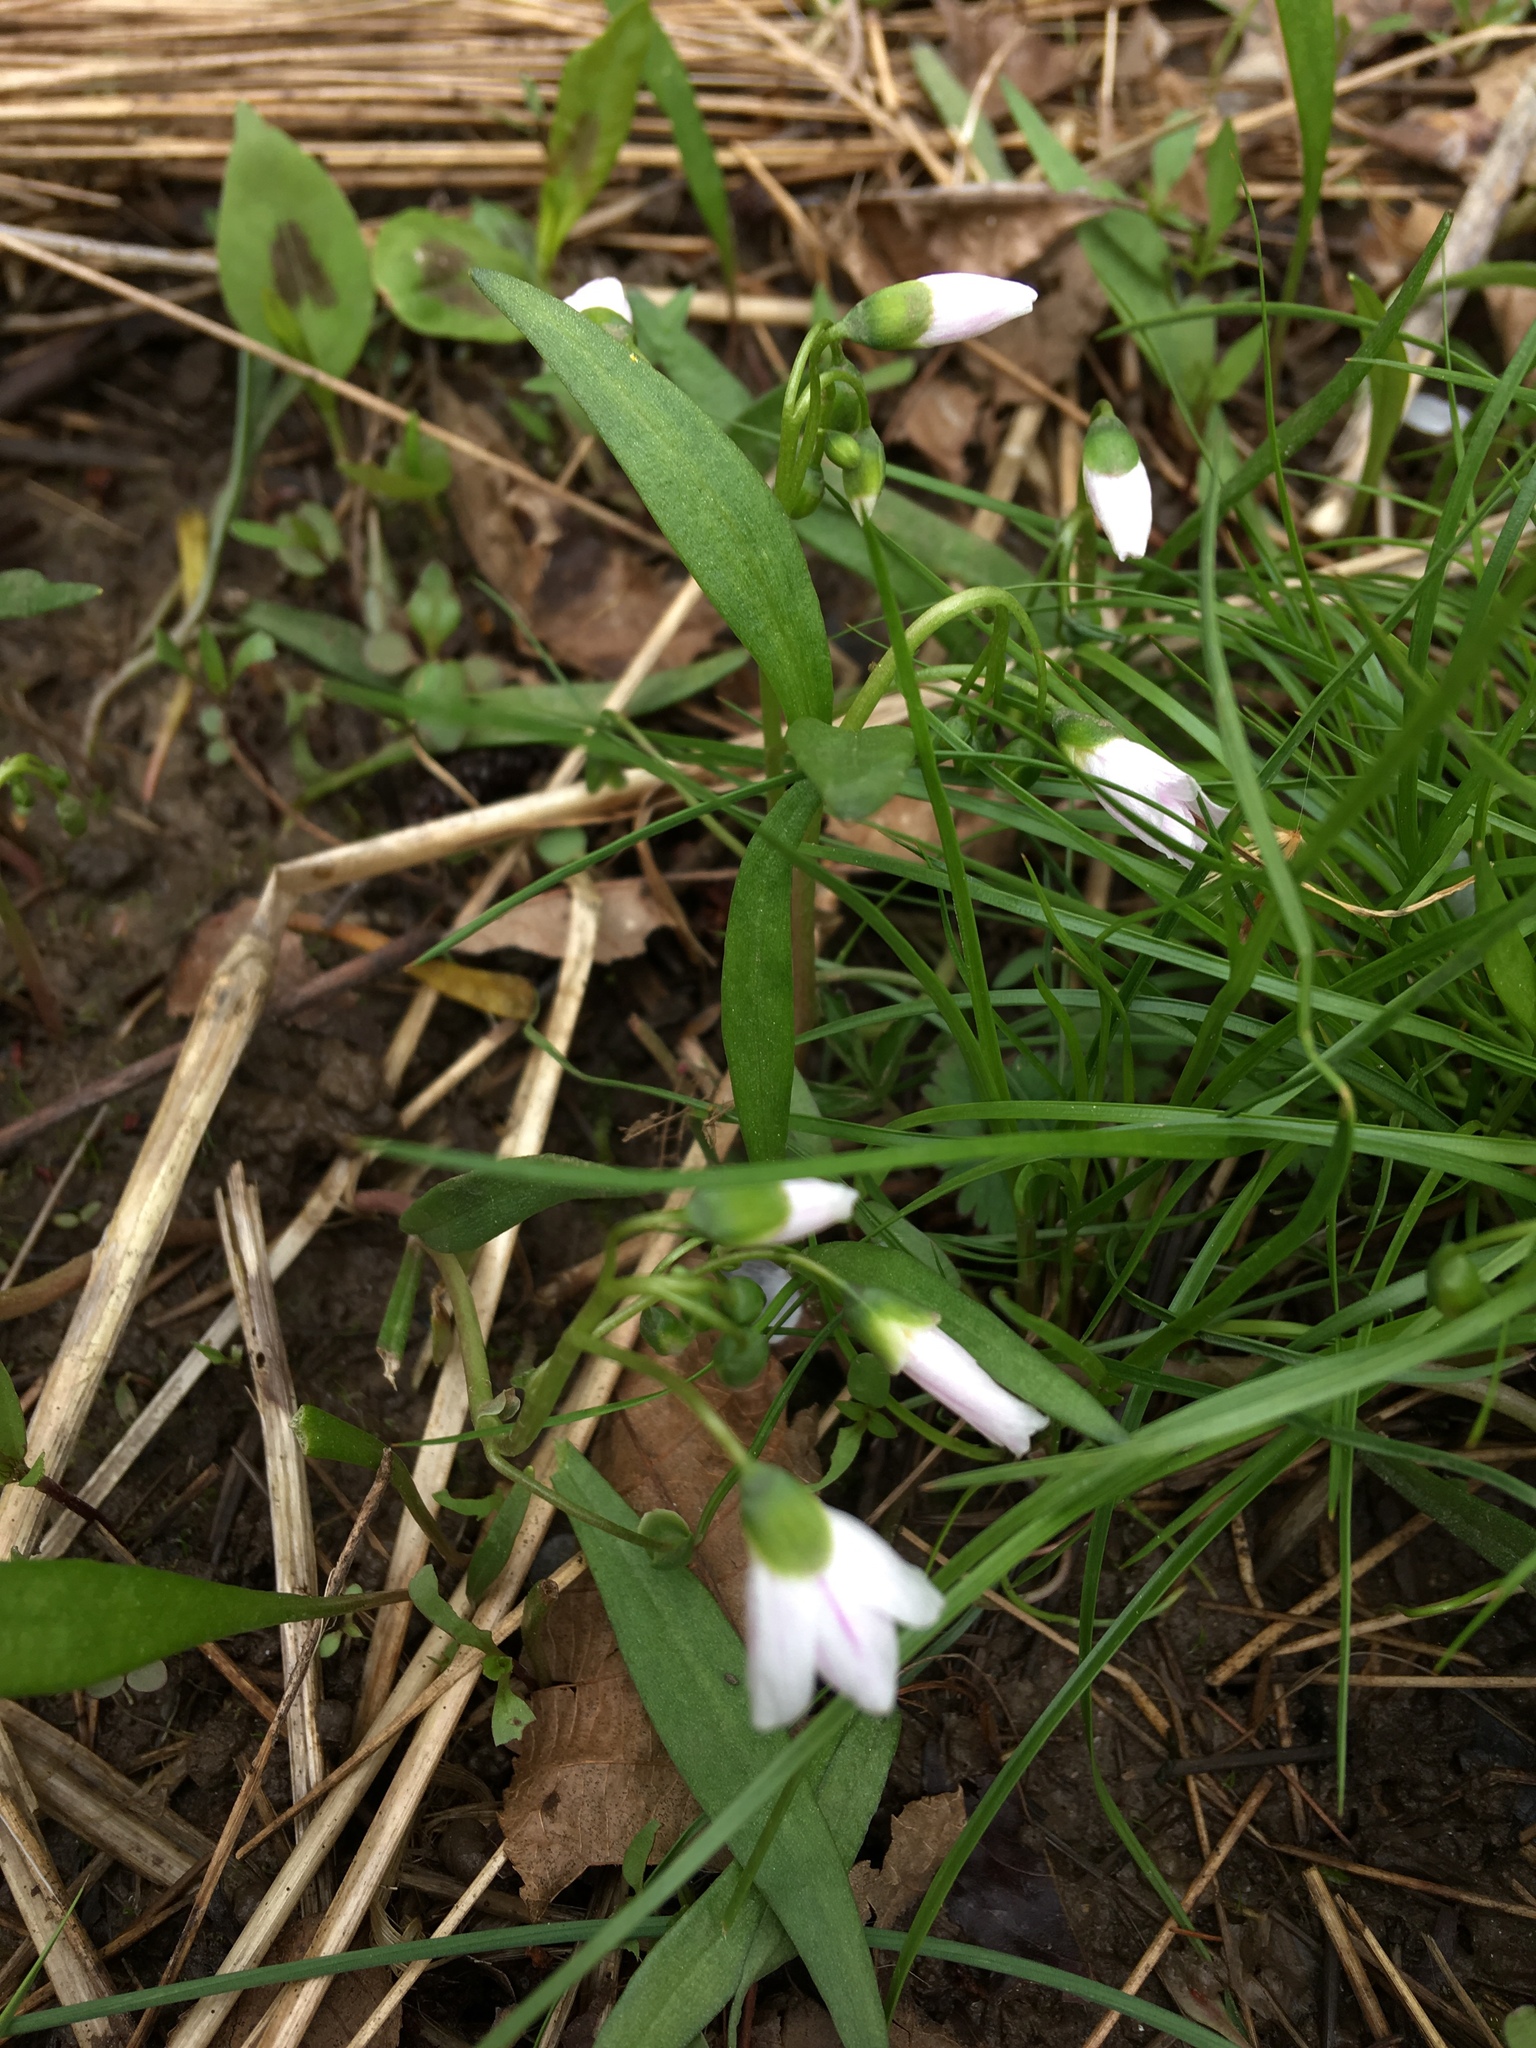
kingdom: Plantae
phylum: Tracheophyta
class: Magnoliopsida
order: Caryophyllales
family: Montiaceae
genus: Claytonia
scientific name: Claytonia virginica
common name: Virginia springbeauty
